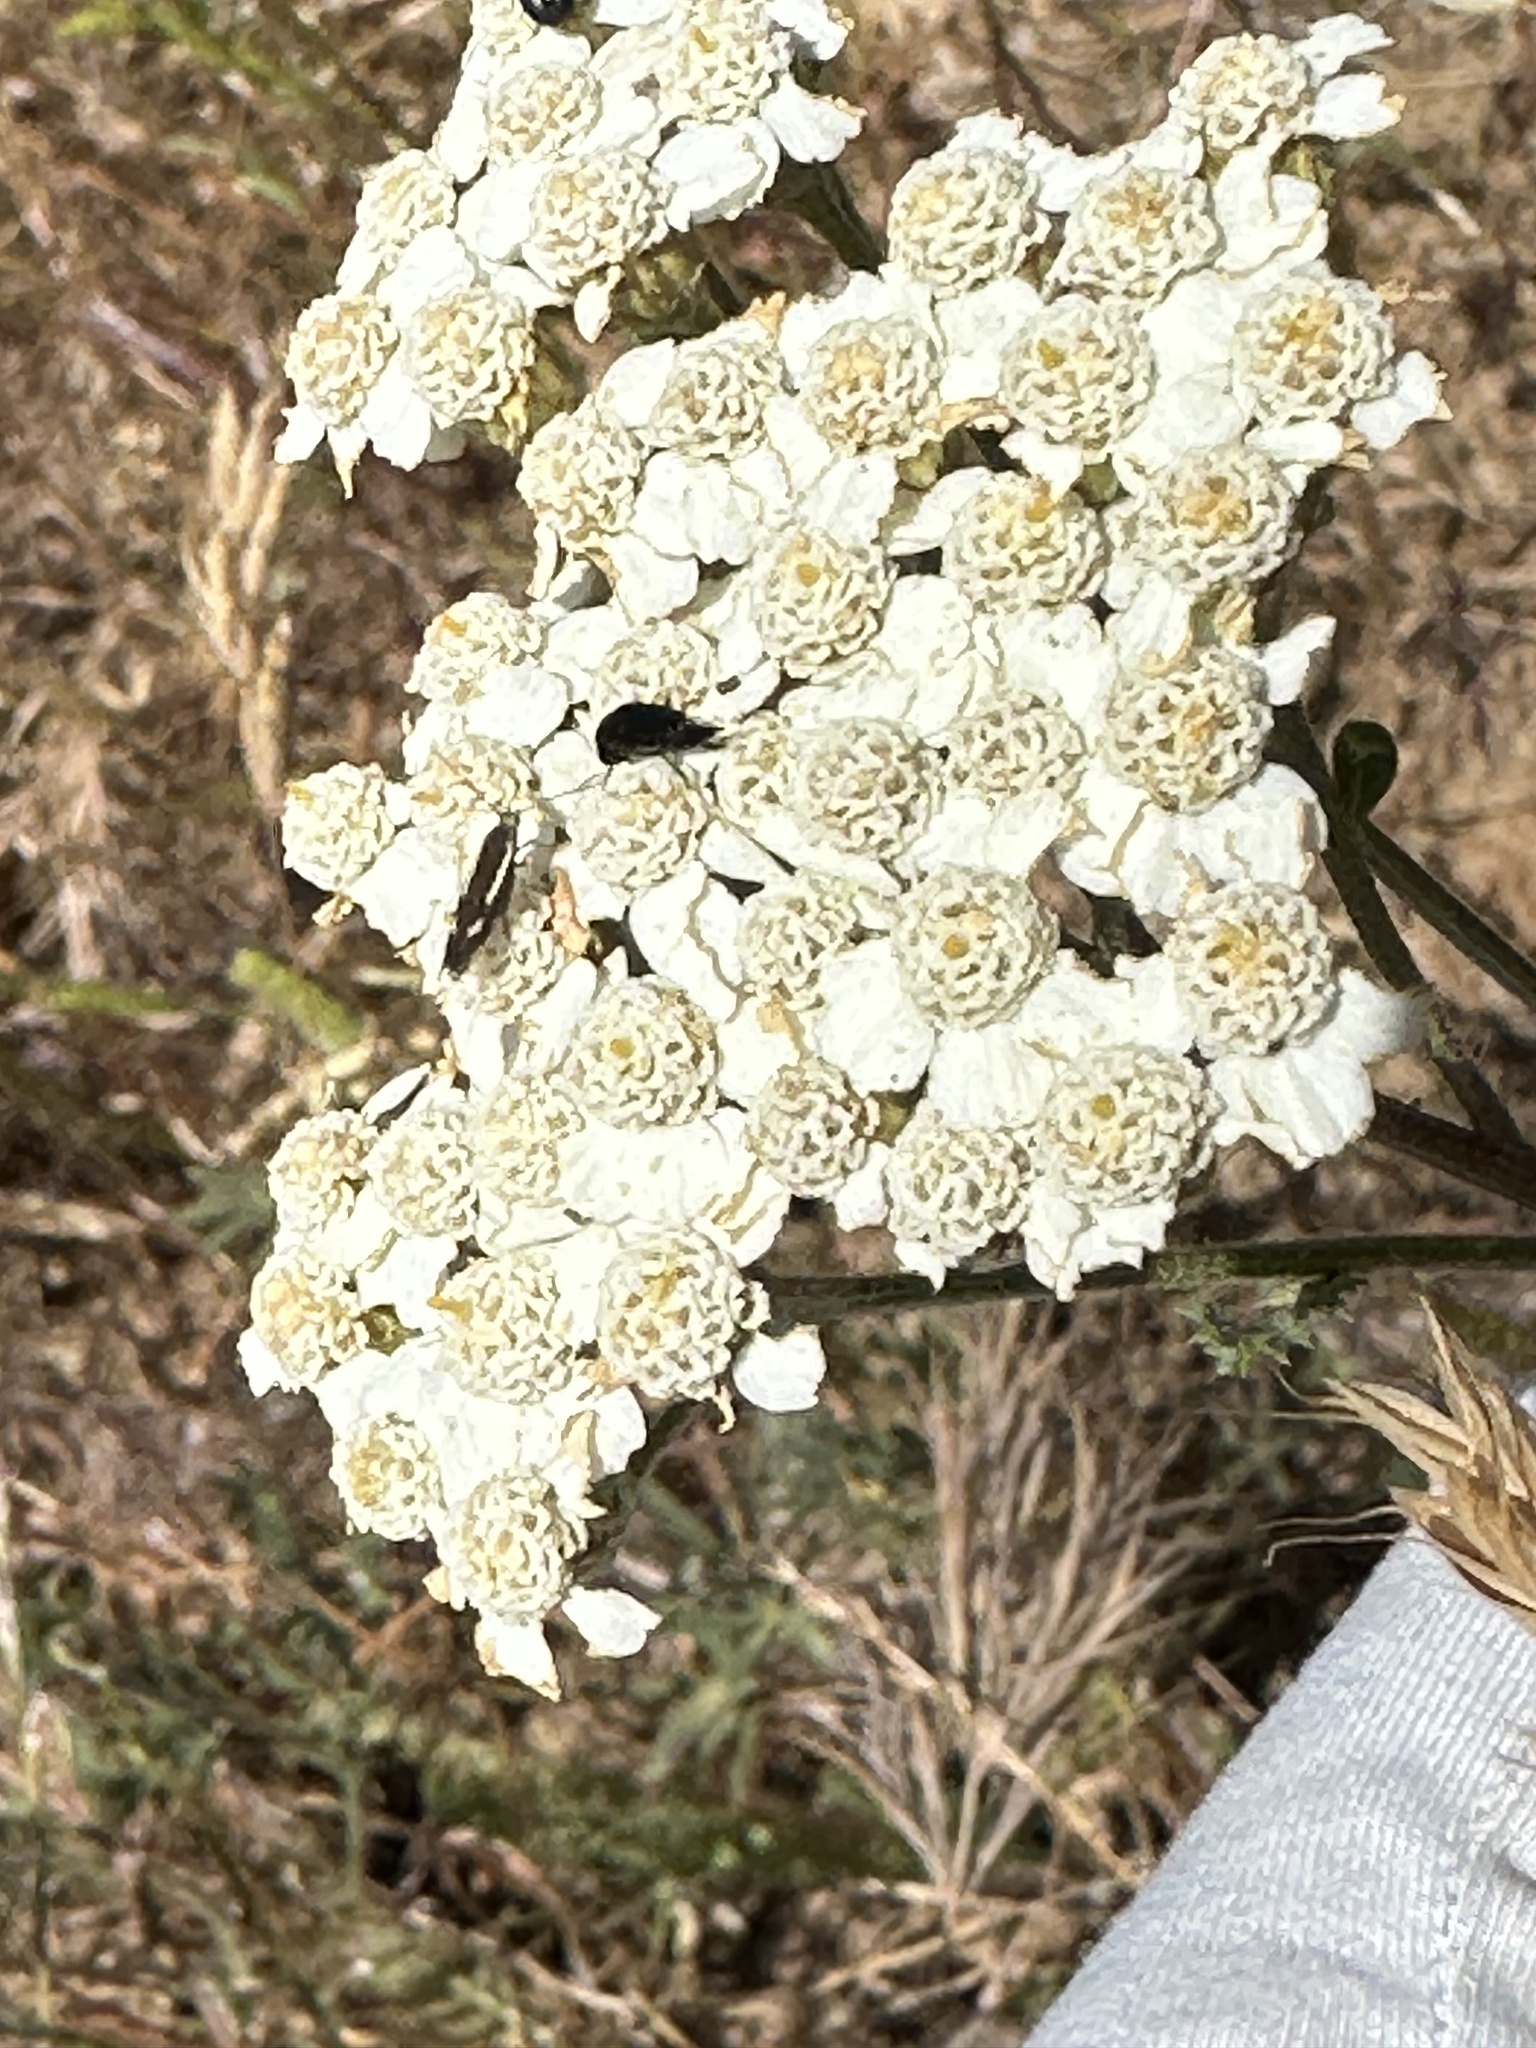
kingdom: Plantae
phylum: Tracheophyta
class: Magnoliopsida
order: Asterales
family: Asteraceae
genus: Achillea
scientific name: Achillea millefolium
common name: Yarrow
